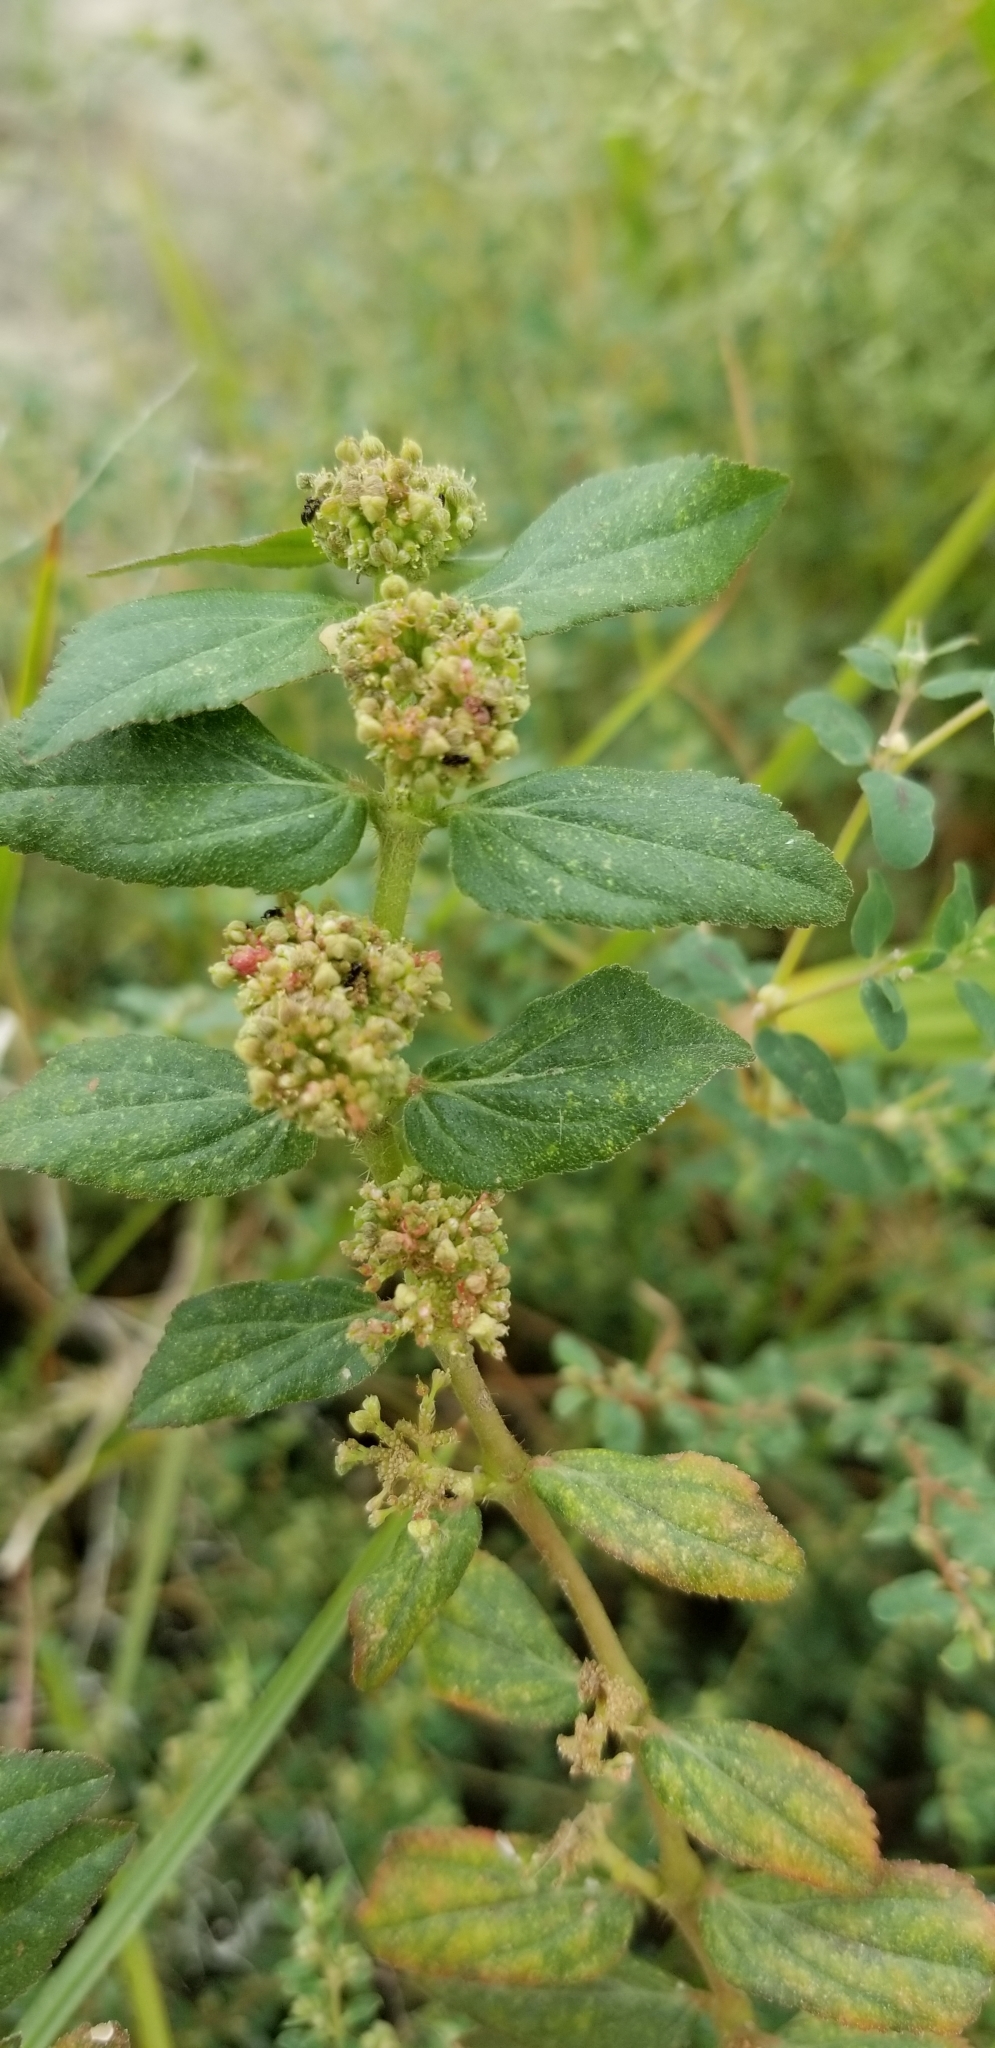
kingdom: Plantae
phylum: Tracheophyta
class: Magnoliopsida
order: Malpighiales
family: Euphorbiaceae
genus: Euphorbia
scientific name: Euphorbia hirta
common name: Pillpod sandmat
